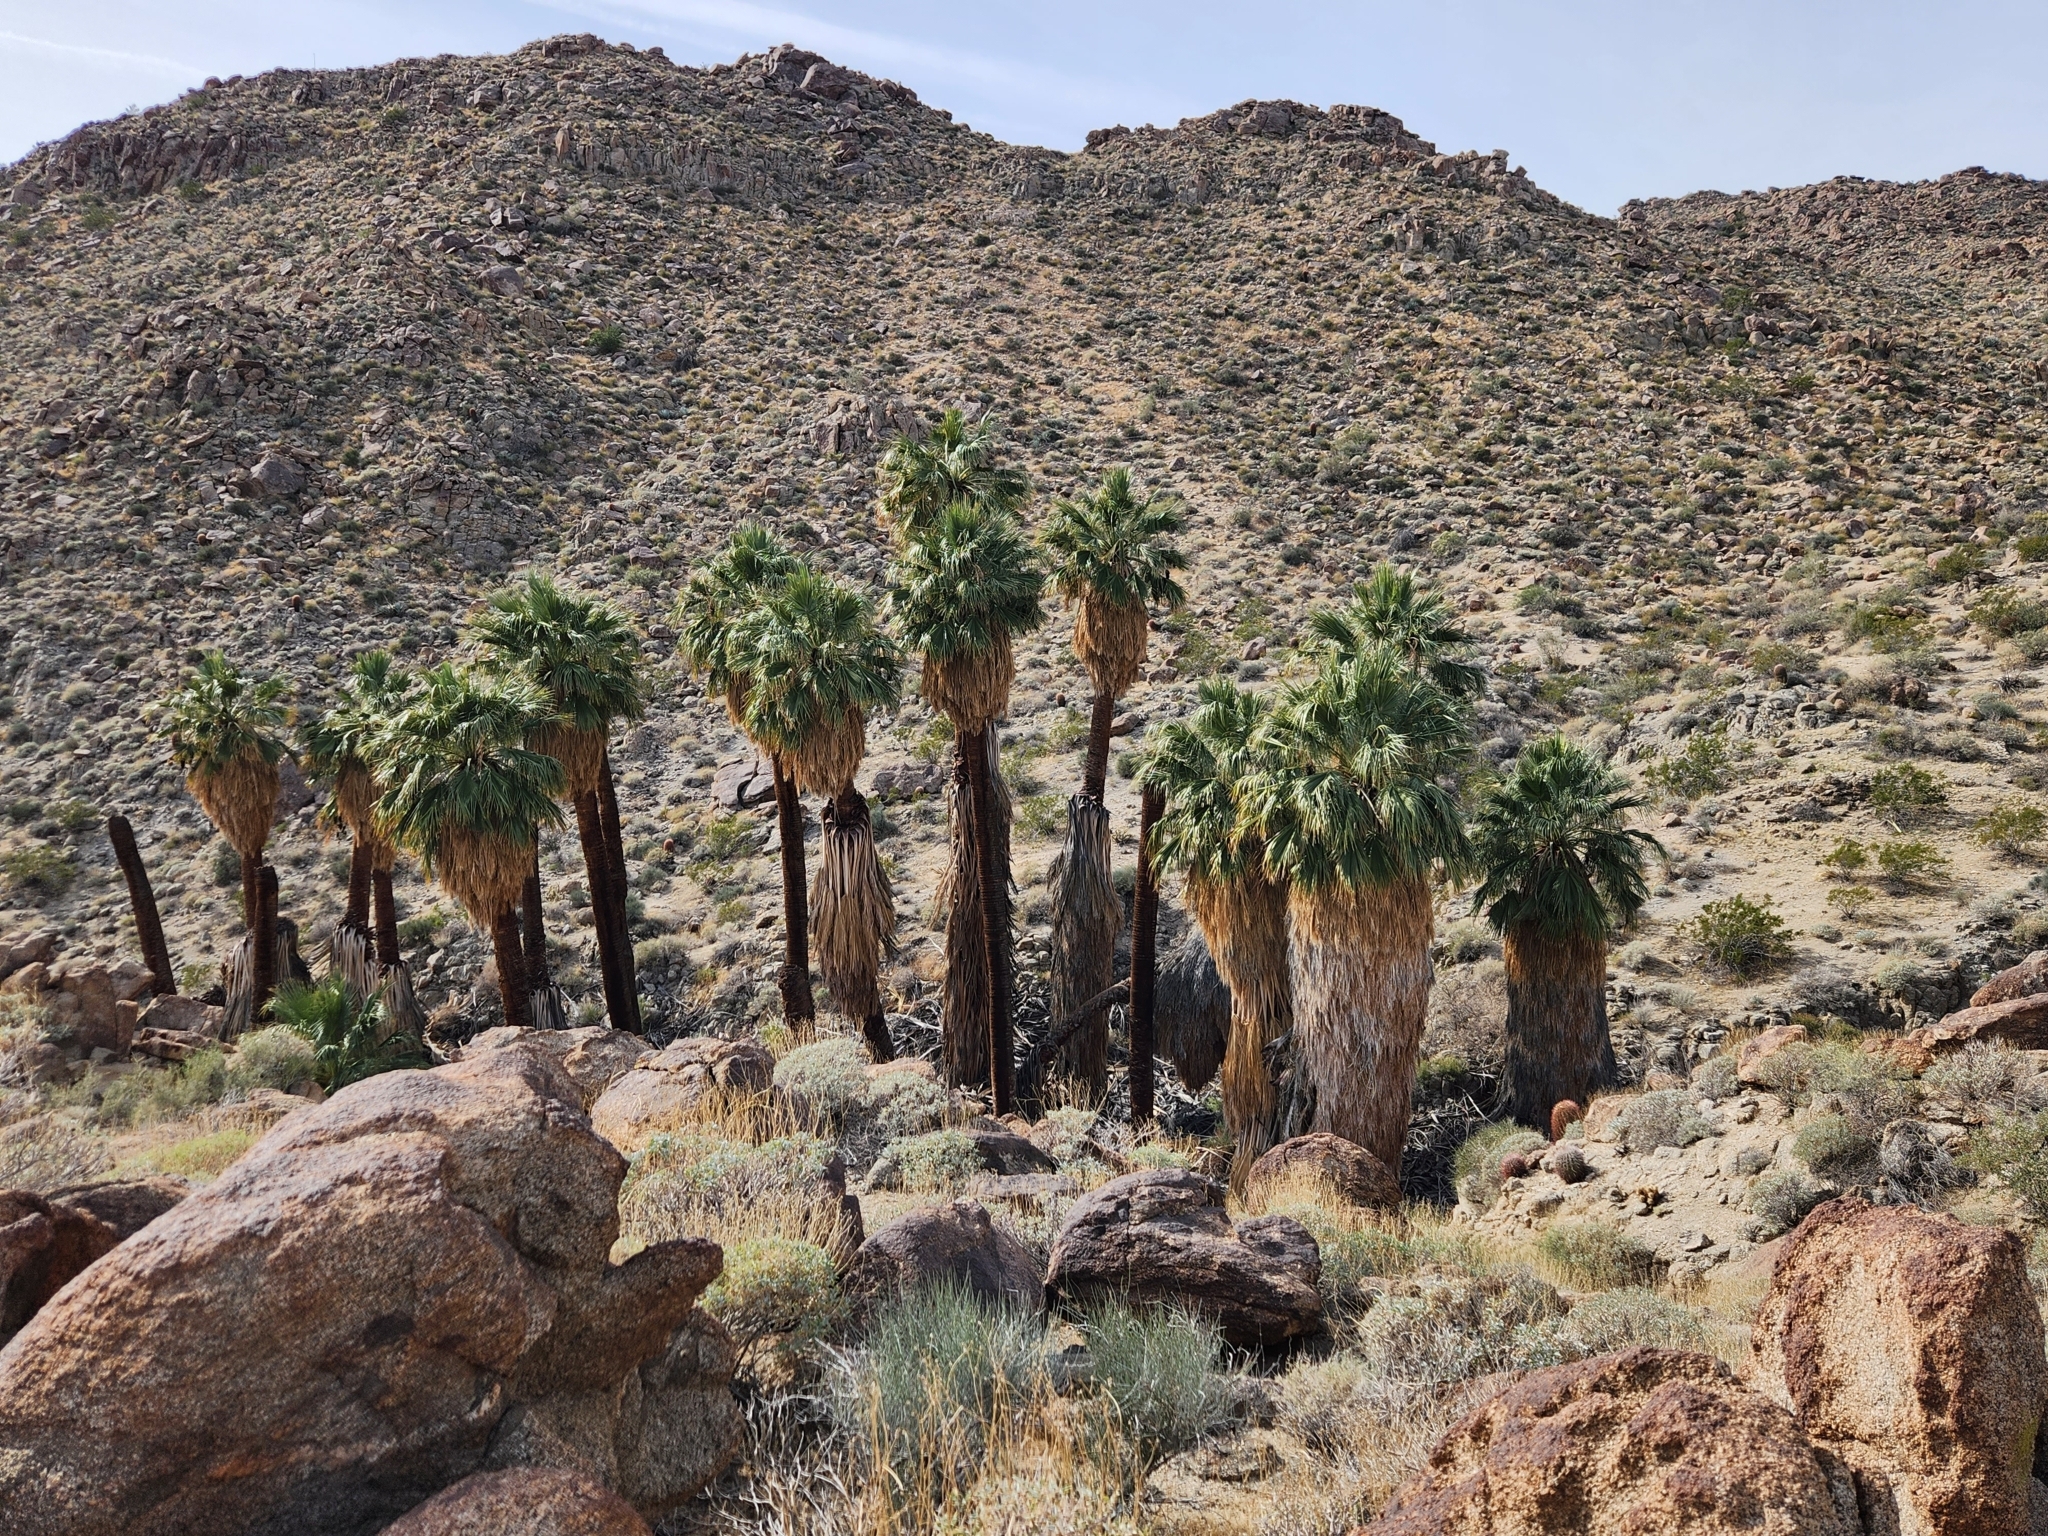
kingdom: Plantae
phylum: Tracheophyta
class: Liliopsida
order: Arecales
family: Arecaceae
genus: Washingtonia
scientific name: Washingtonia filifera
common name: California fan palm
